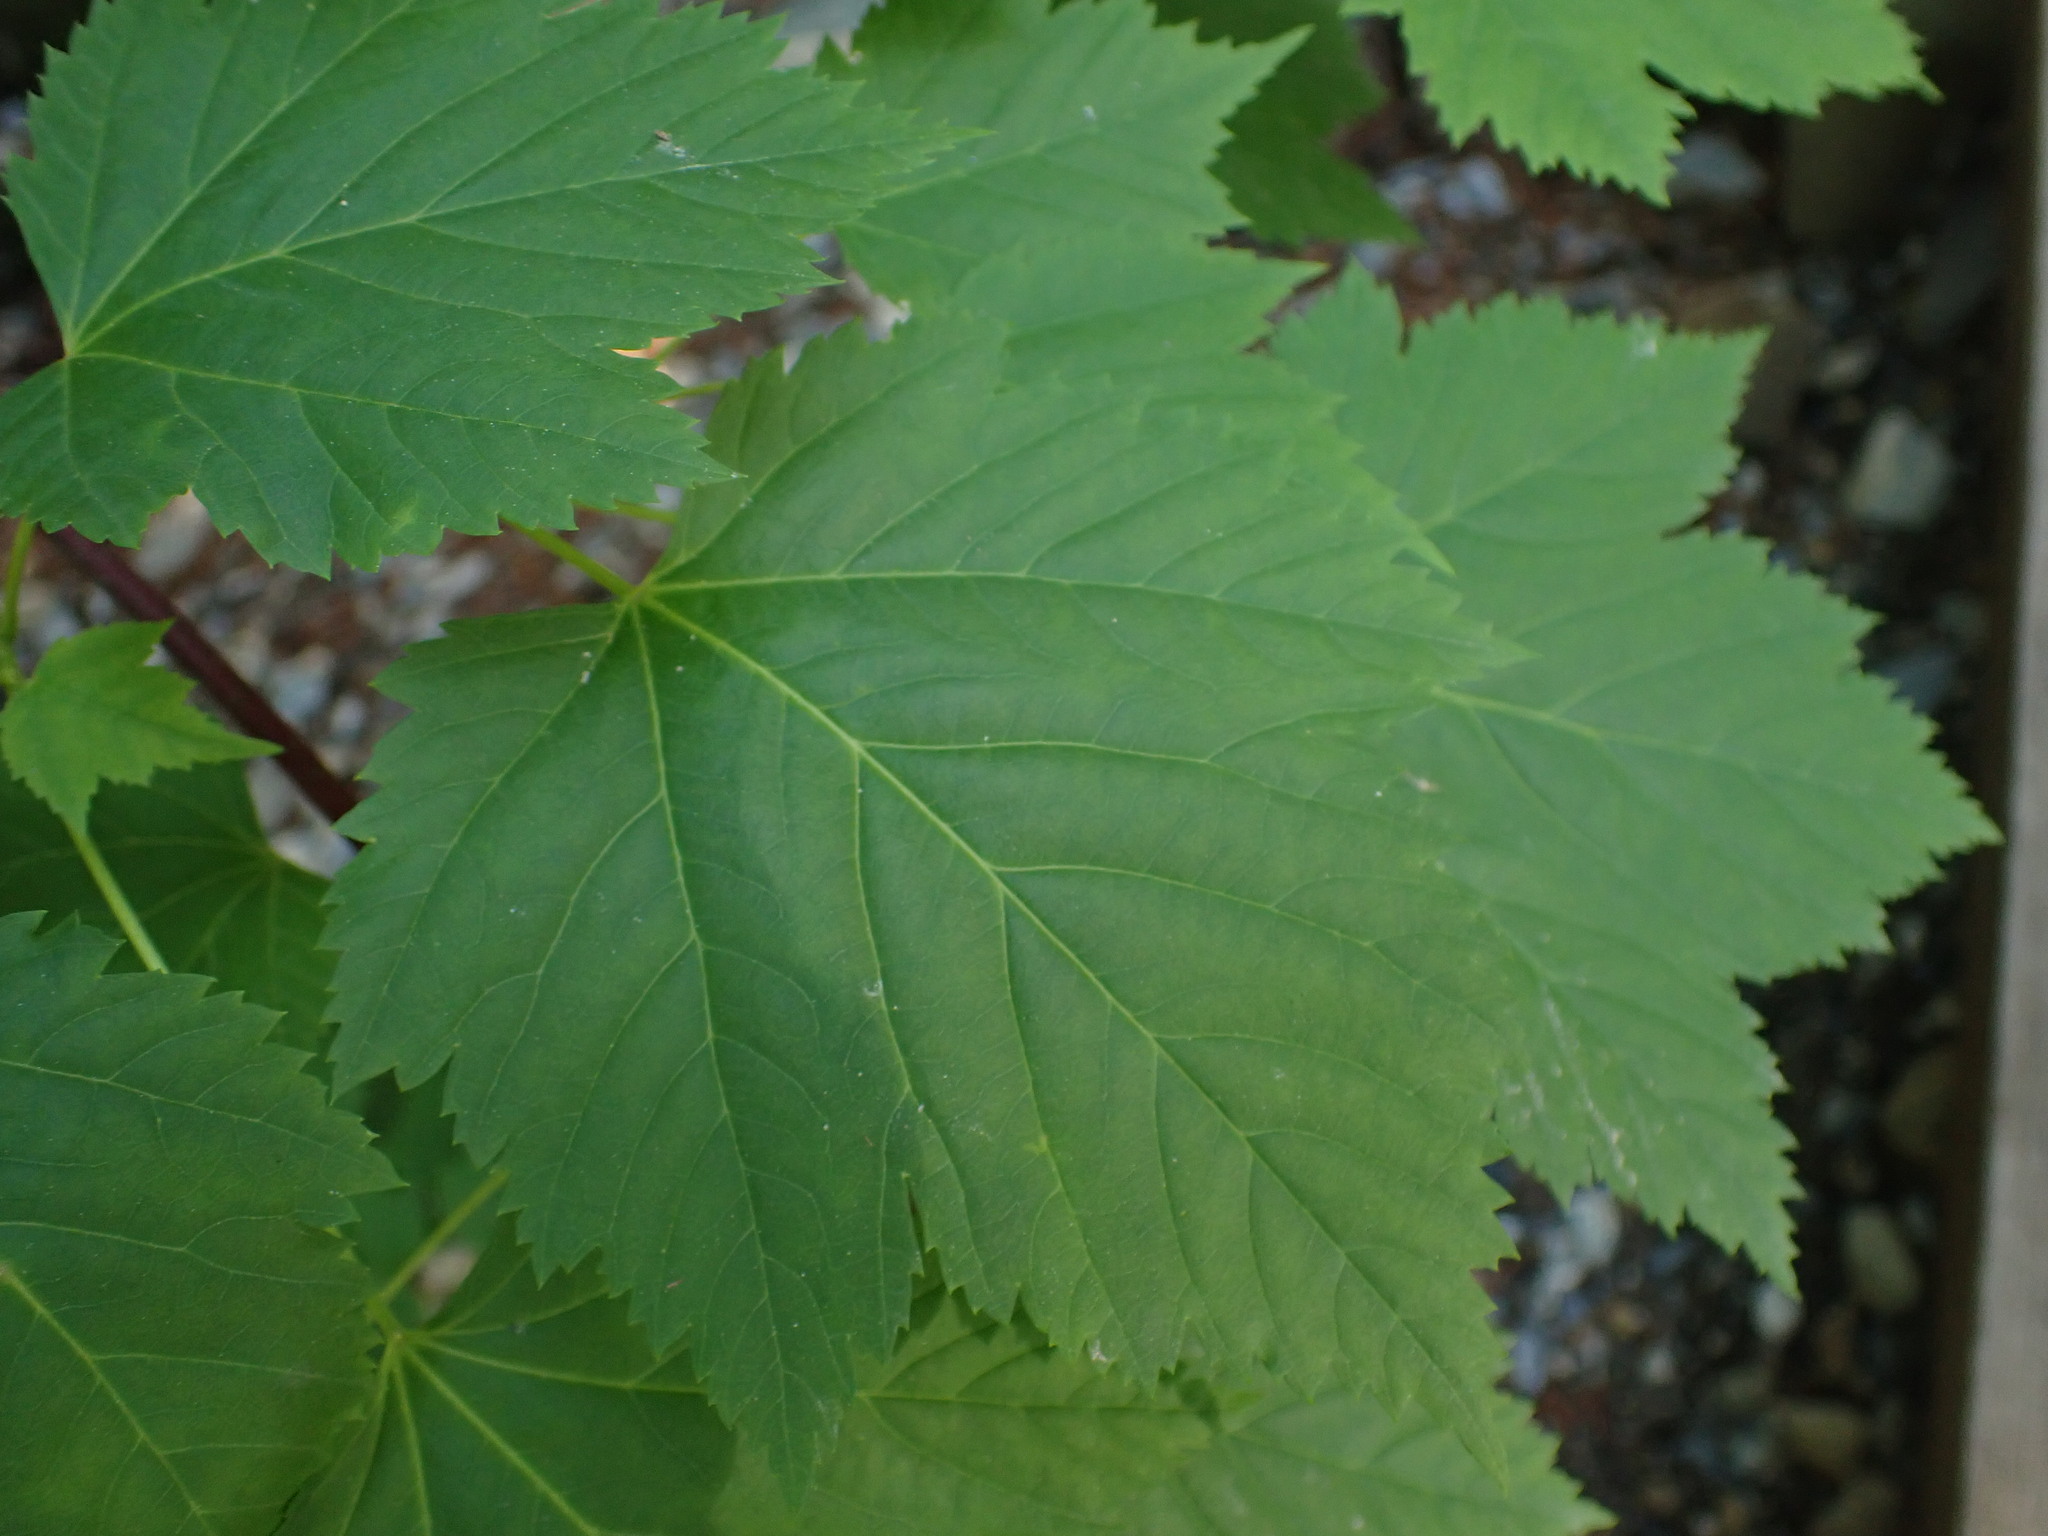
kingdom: Plantae
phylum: Tracheophyta
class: Magnoliopsida
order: Sapindales
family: Sapindaceae
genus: Acer
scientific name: Acer glabrum
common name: Rocky mountain maple
